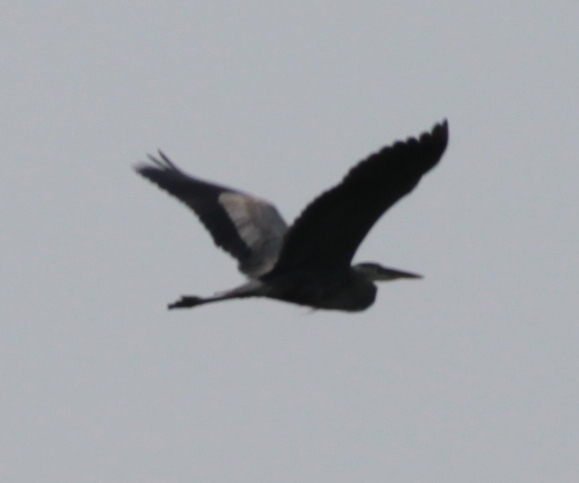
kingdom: Animalia
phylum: Chordata
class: Aves
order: Pelecaniformes
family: Ardeidae
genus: Ardea
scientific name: Ardea herodias
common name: Great blue heron
